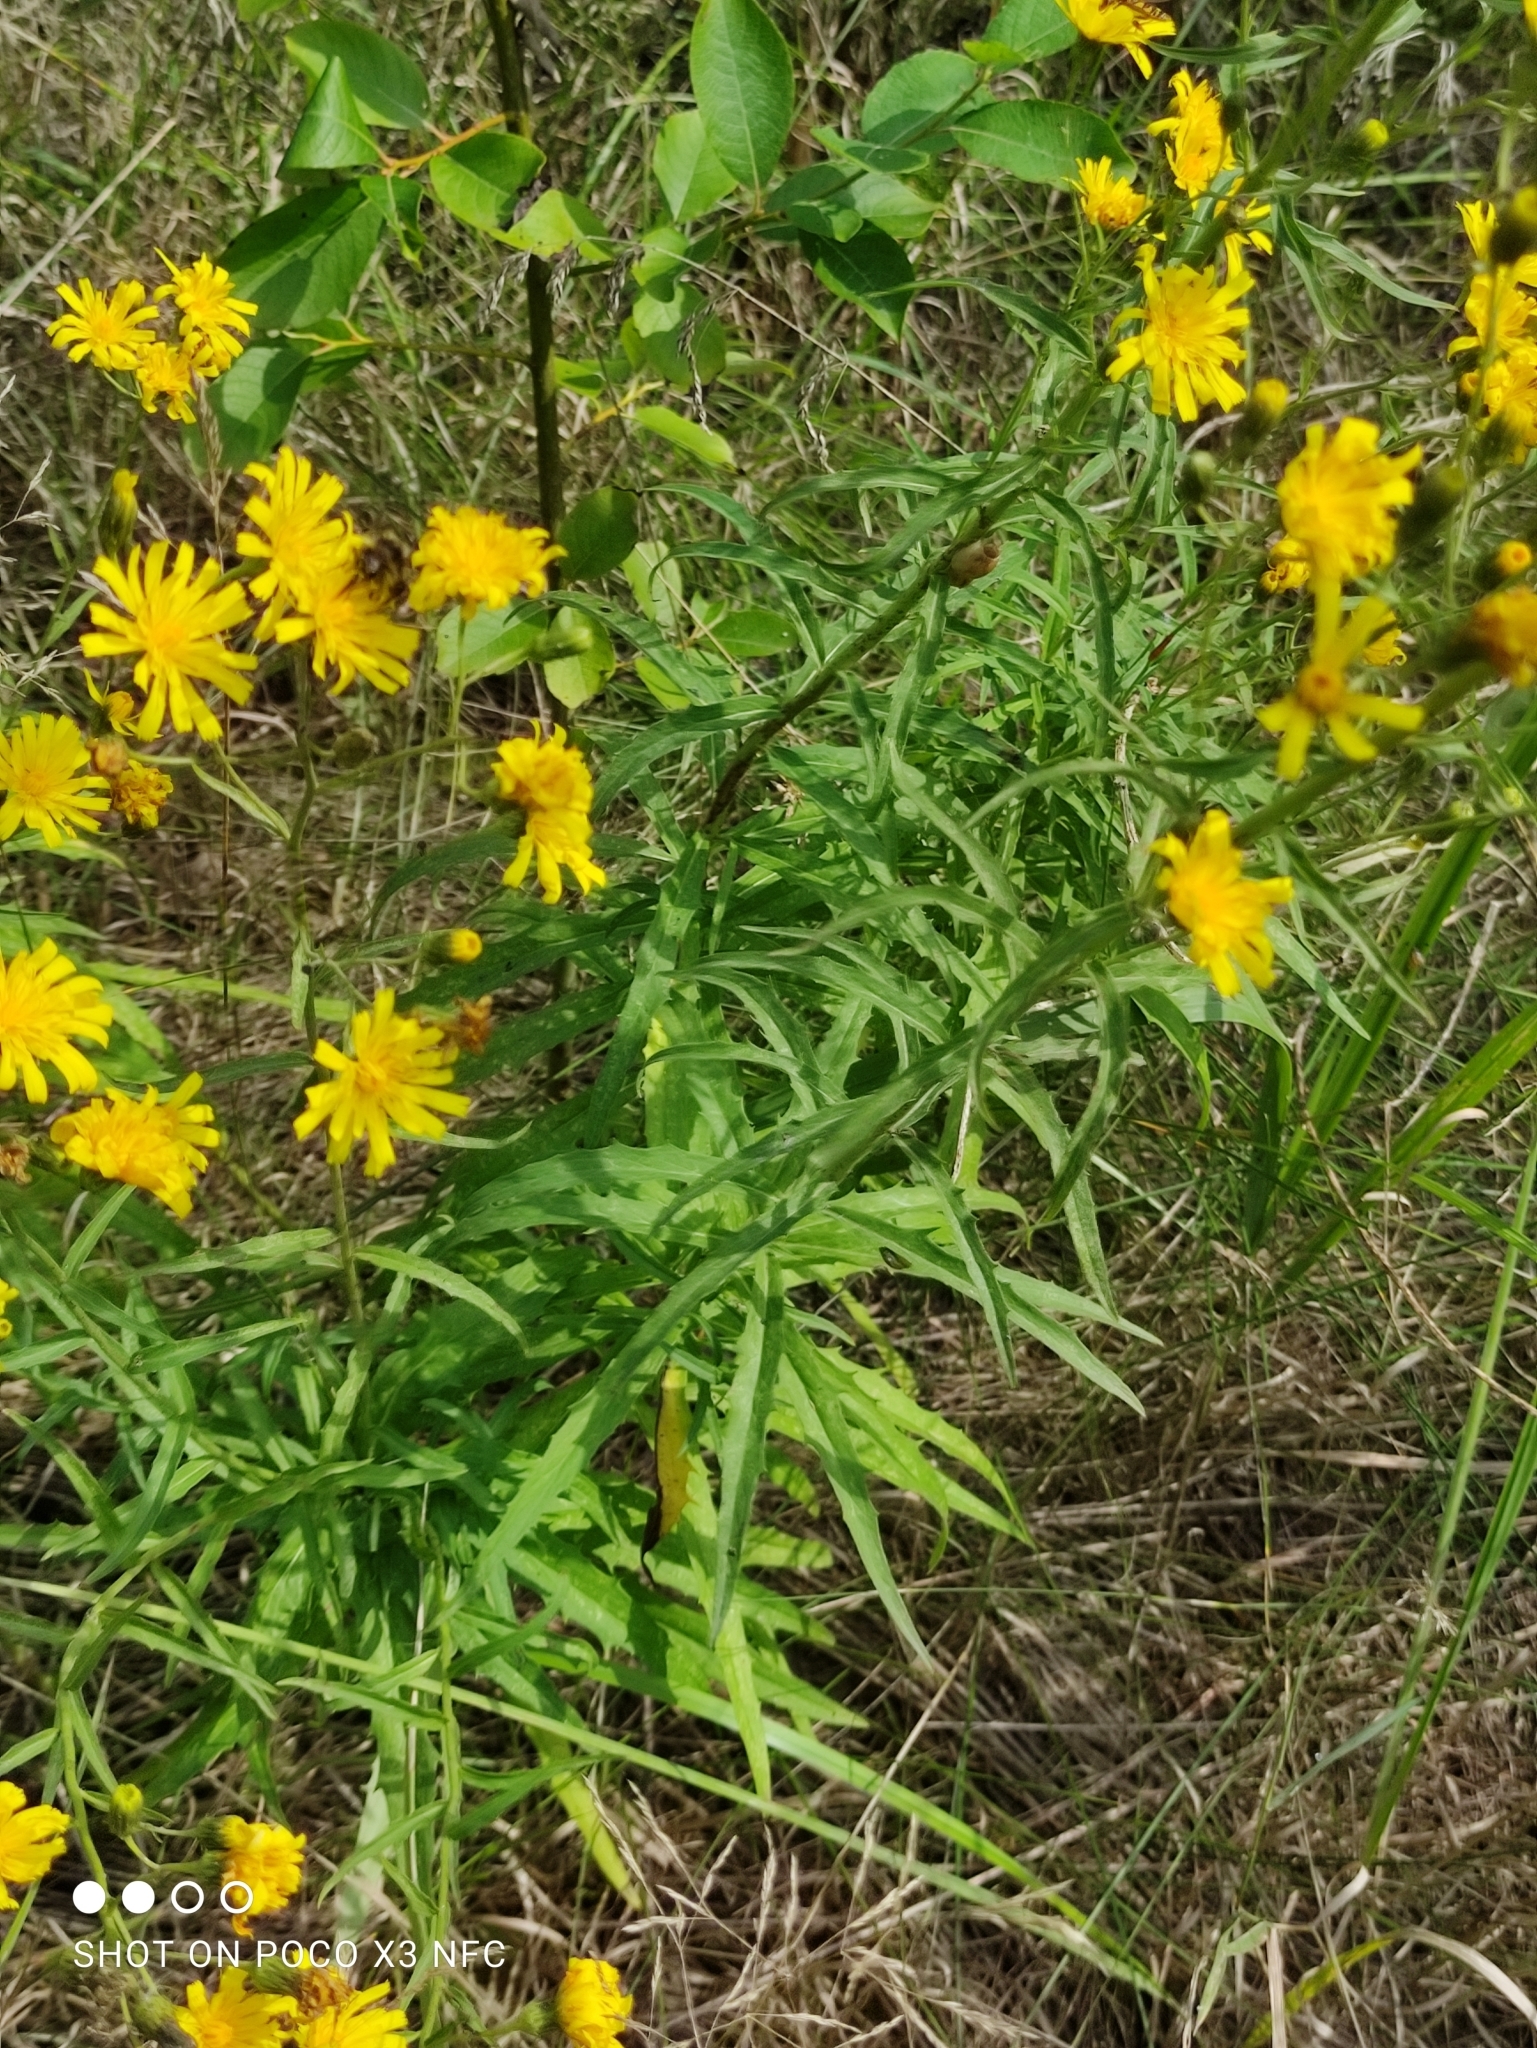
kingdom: Plantae
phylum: Tracheophyta
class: Magnoliopsida
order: Asterales
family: Asteraceae
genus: Hieracium
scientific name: Hieracium umbellatum
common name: Northern hawkweed
